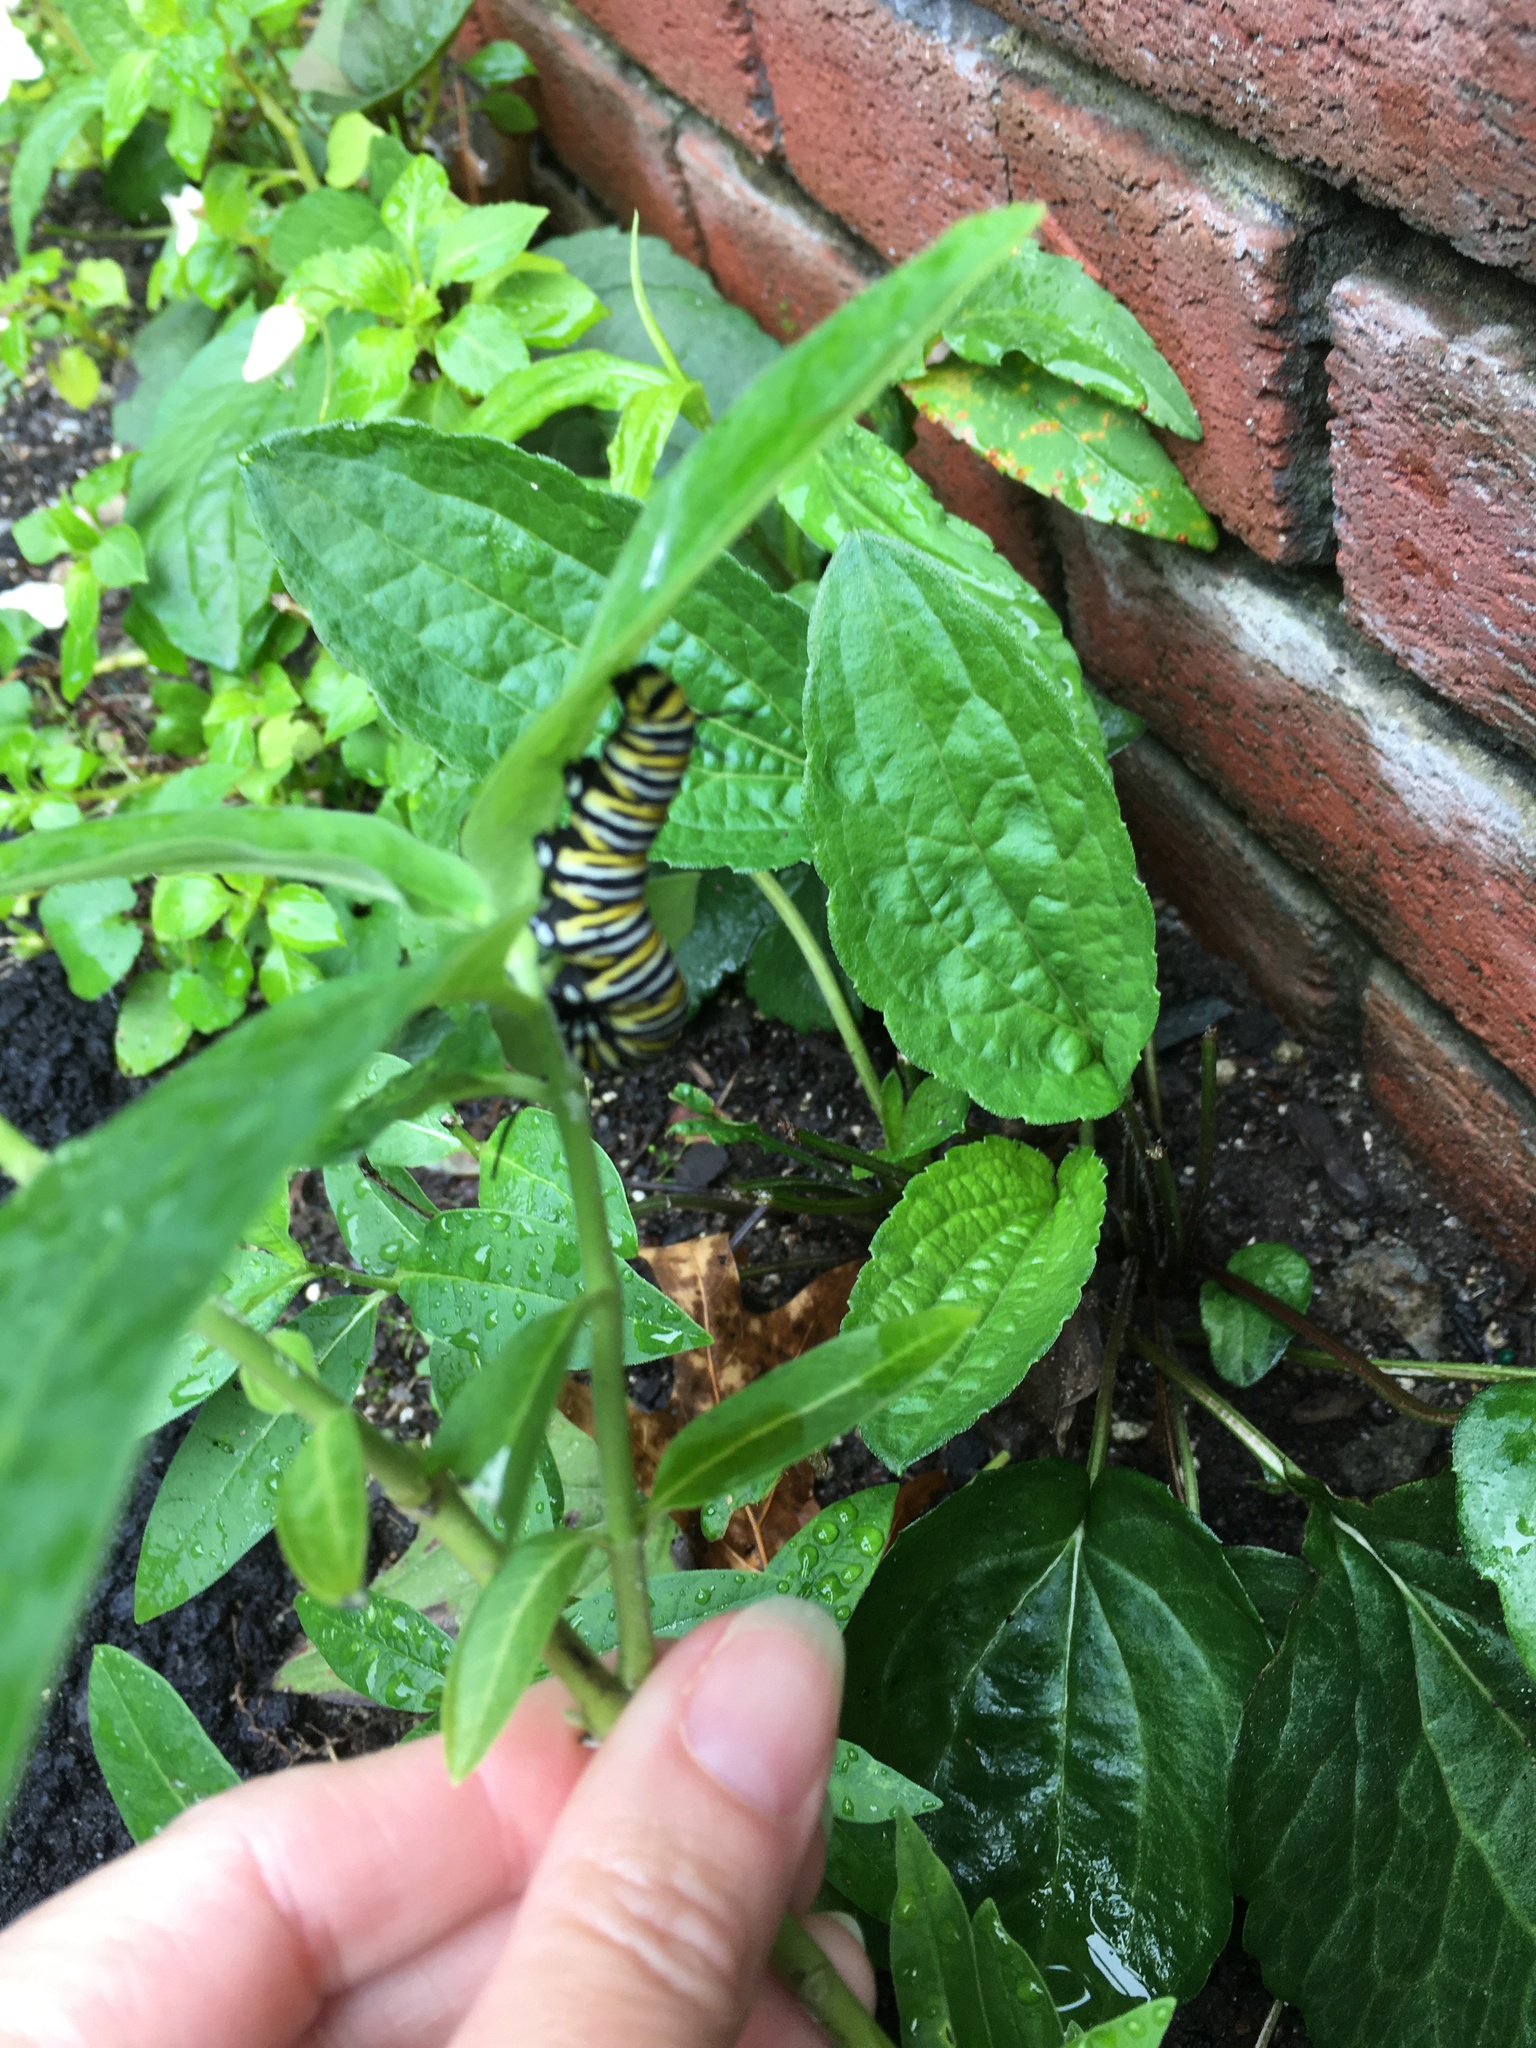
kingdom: Animalia
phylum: Arthropoda
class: Insecta
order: Lepidoptera
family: Nymphalidae
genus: Danaus
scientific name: Danaus plexippus
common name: Monarch
